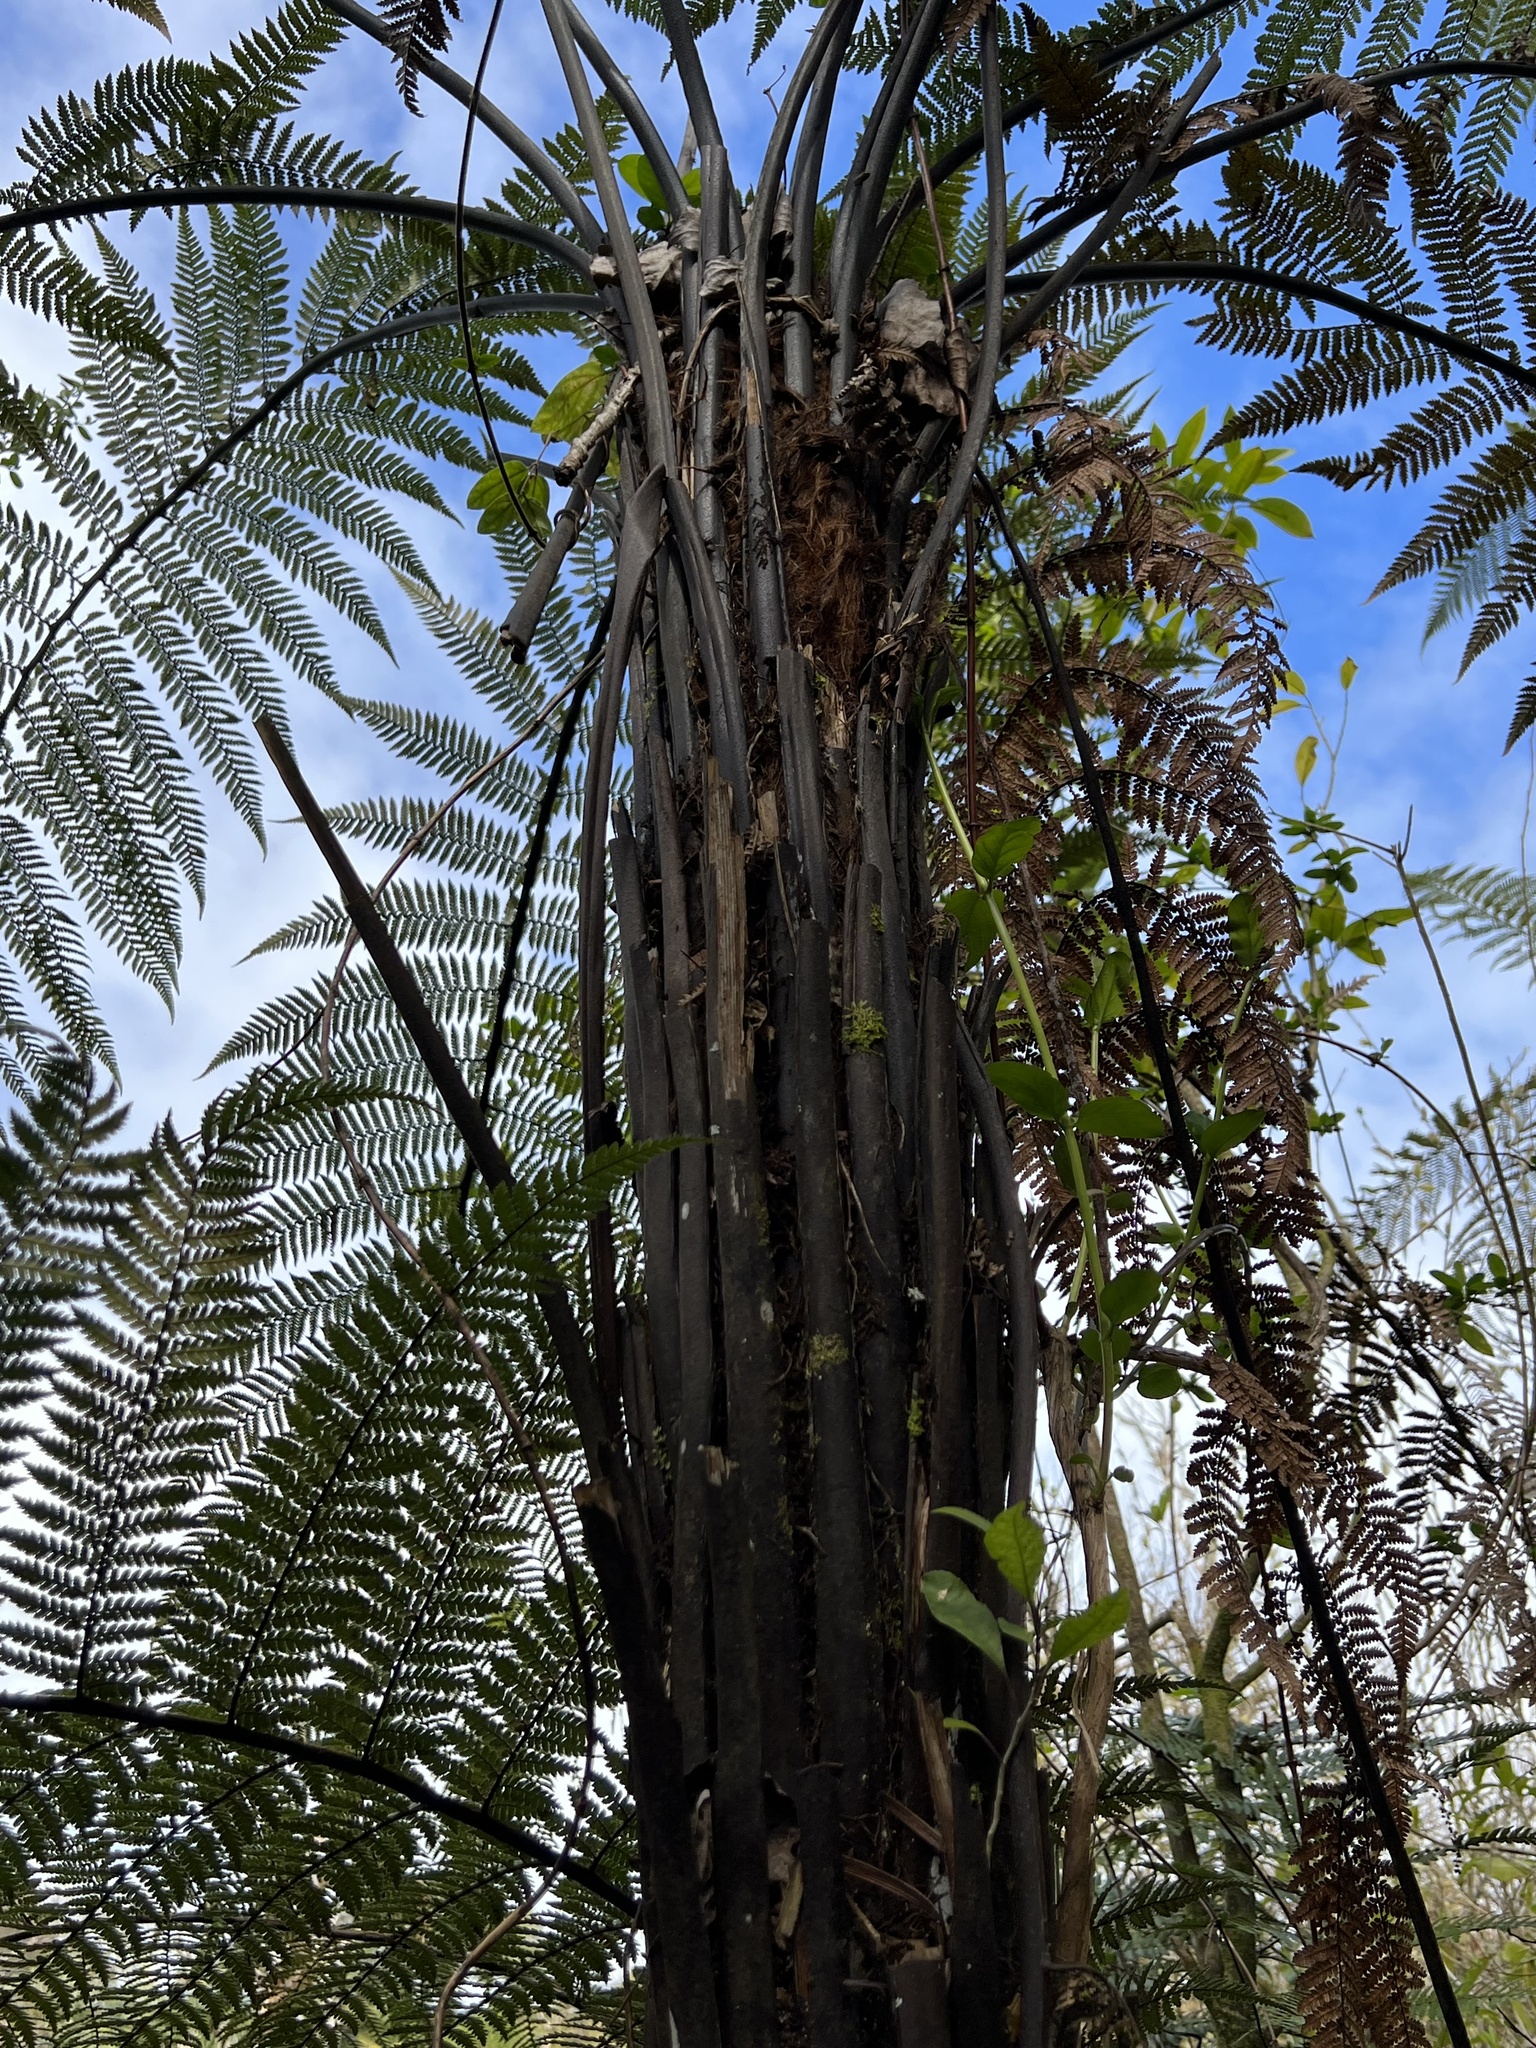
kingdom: Plantae
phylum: Tracheophyta
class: Polypodiopsida
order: Cyatheales
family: Dicksoniaceae
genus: Dicksonia
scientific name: Dicksonia squarrosa
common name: Hard treefern
